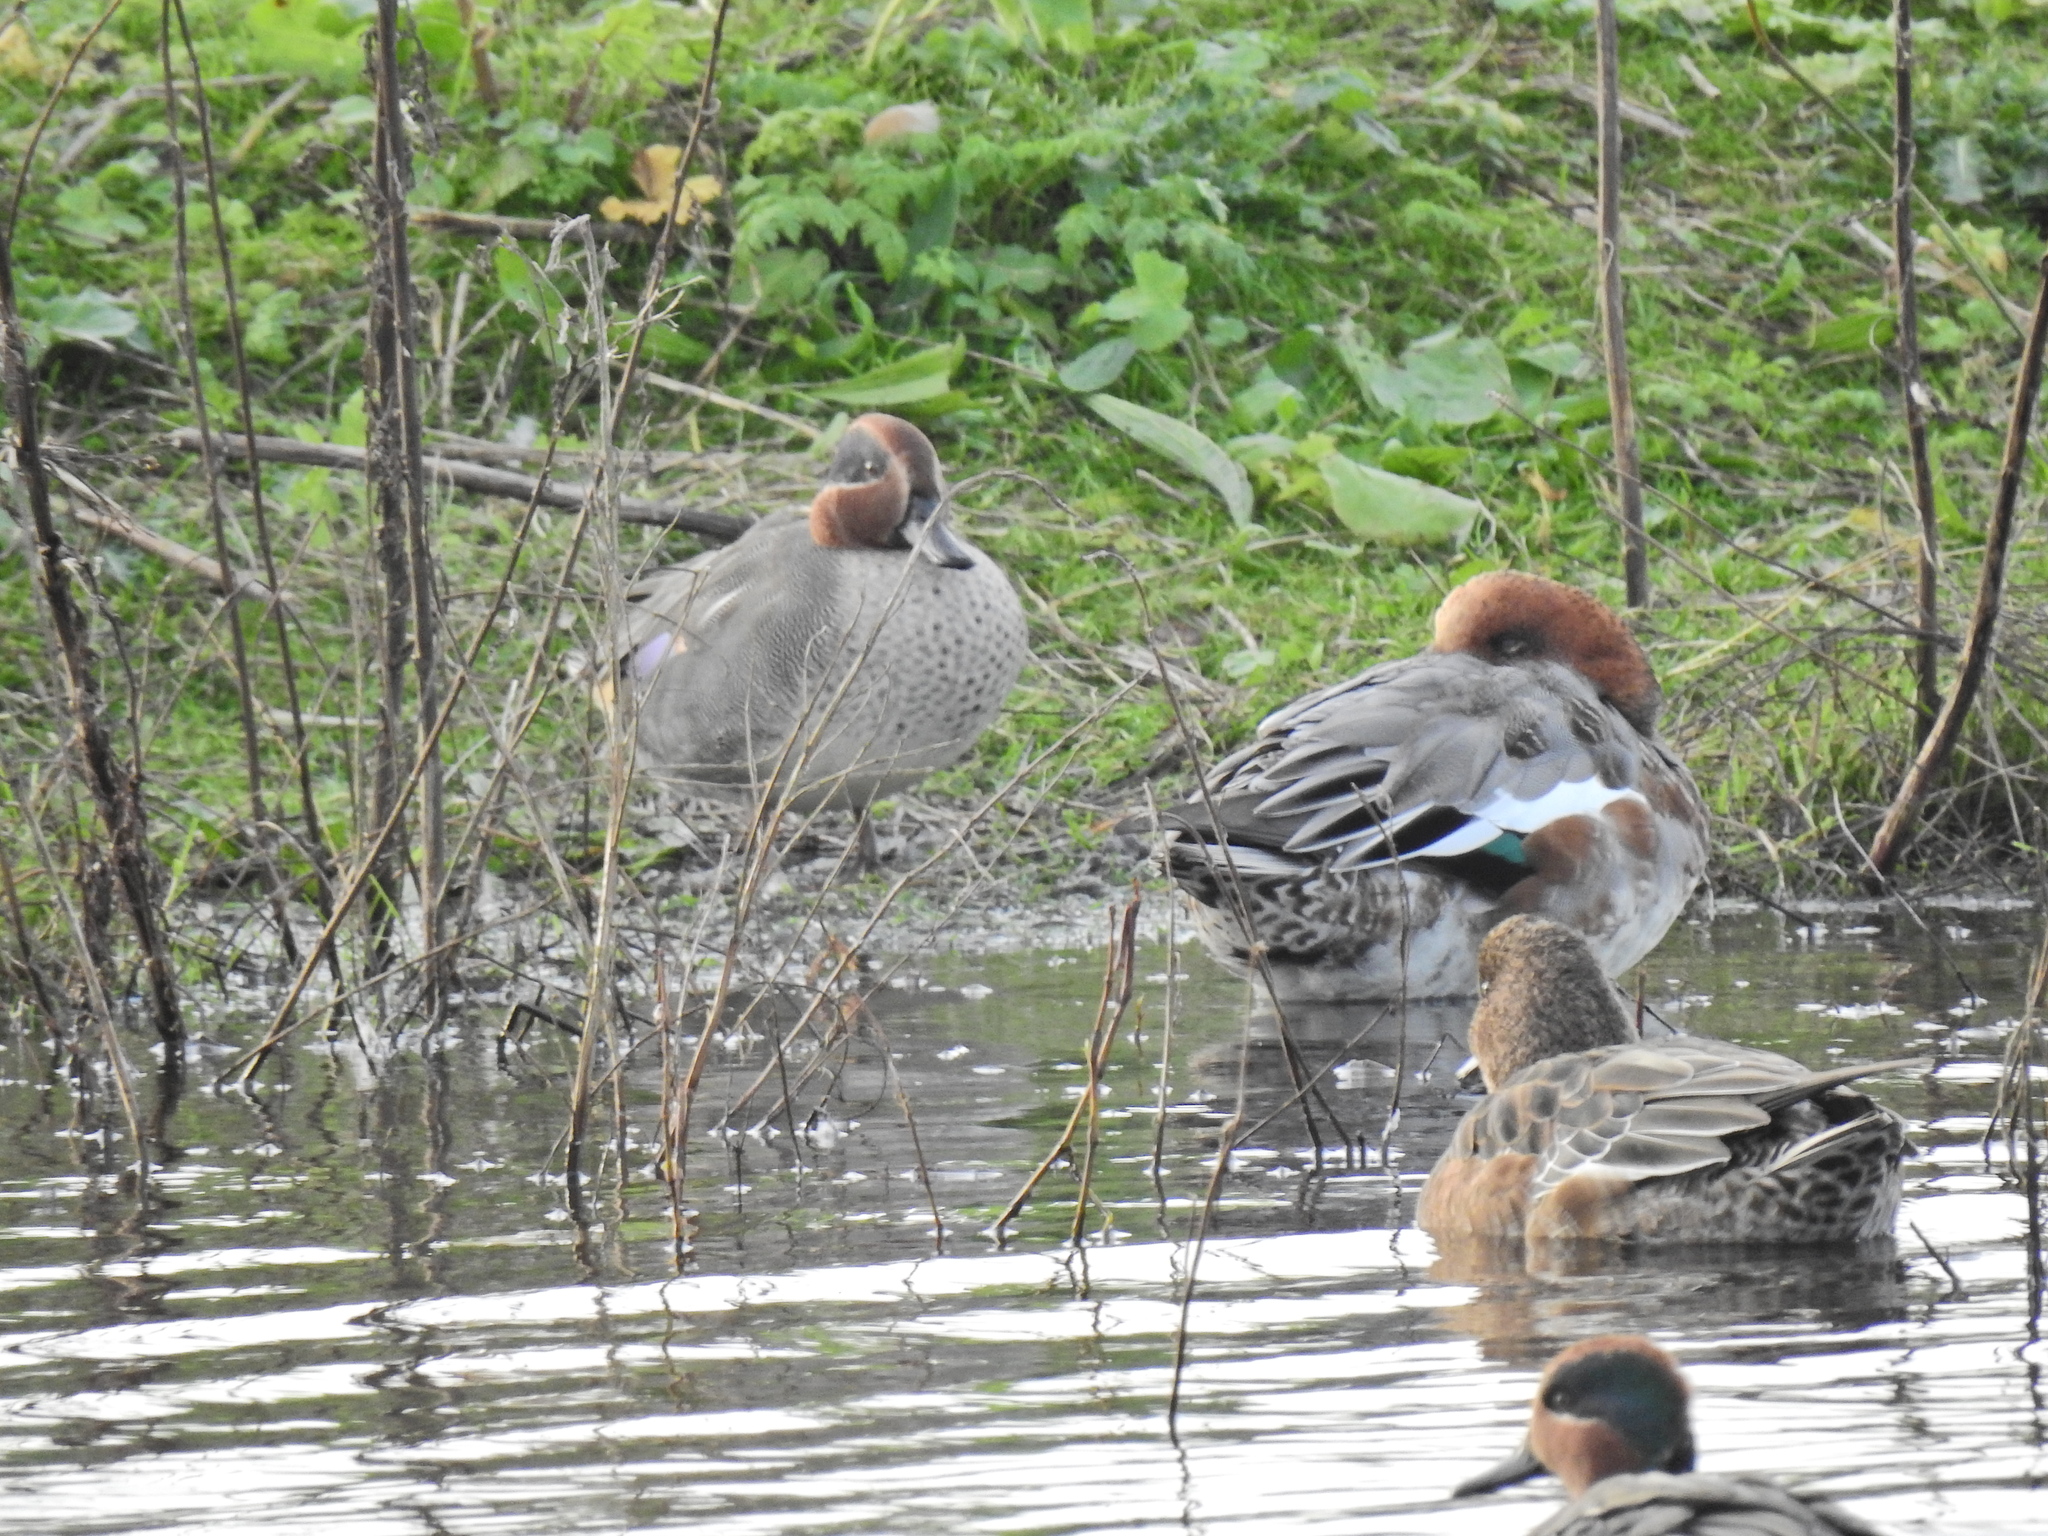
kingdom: Animalia
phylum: Chordata
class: Aves
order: Anseriformes
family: Anatidae
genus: Anas
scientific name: Anas crecca
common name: Eurasian teal
